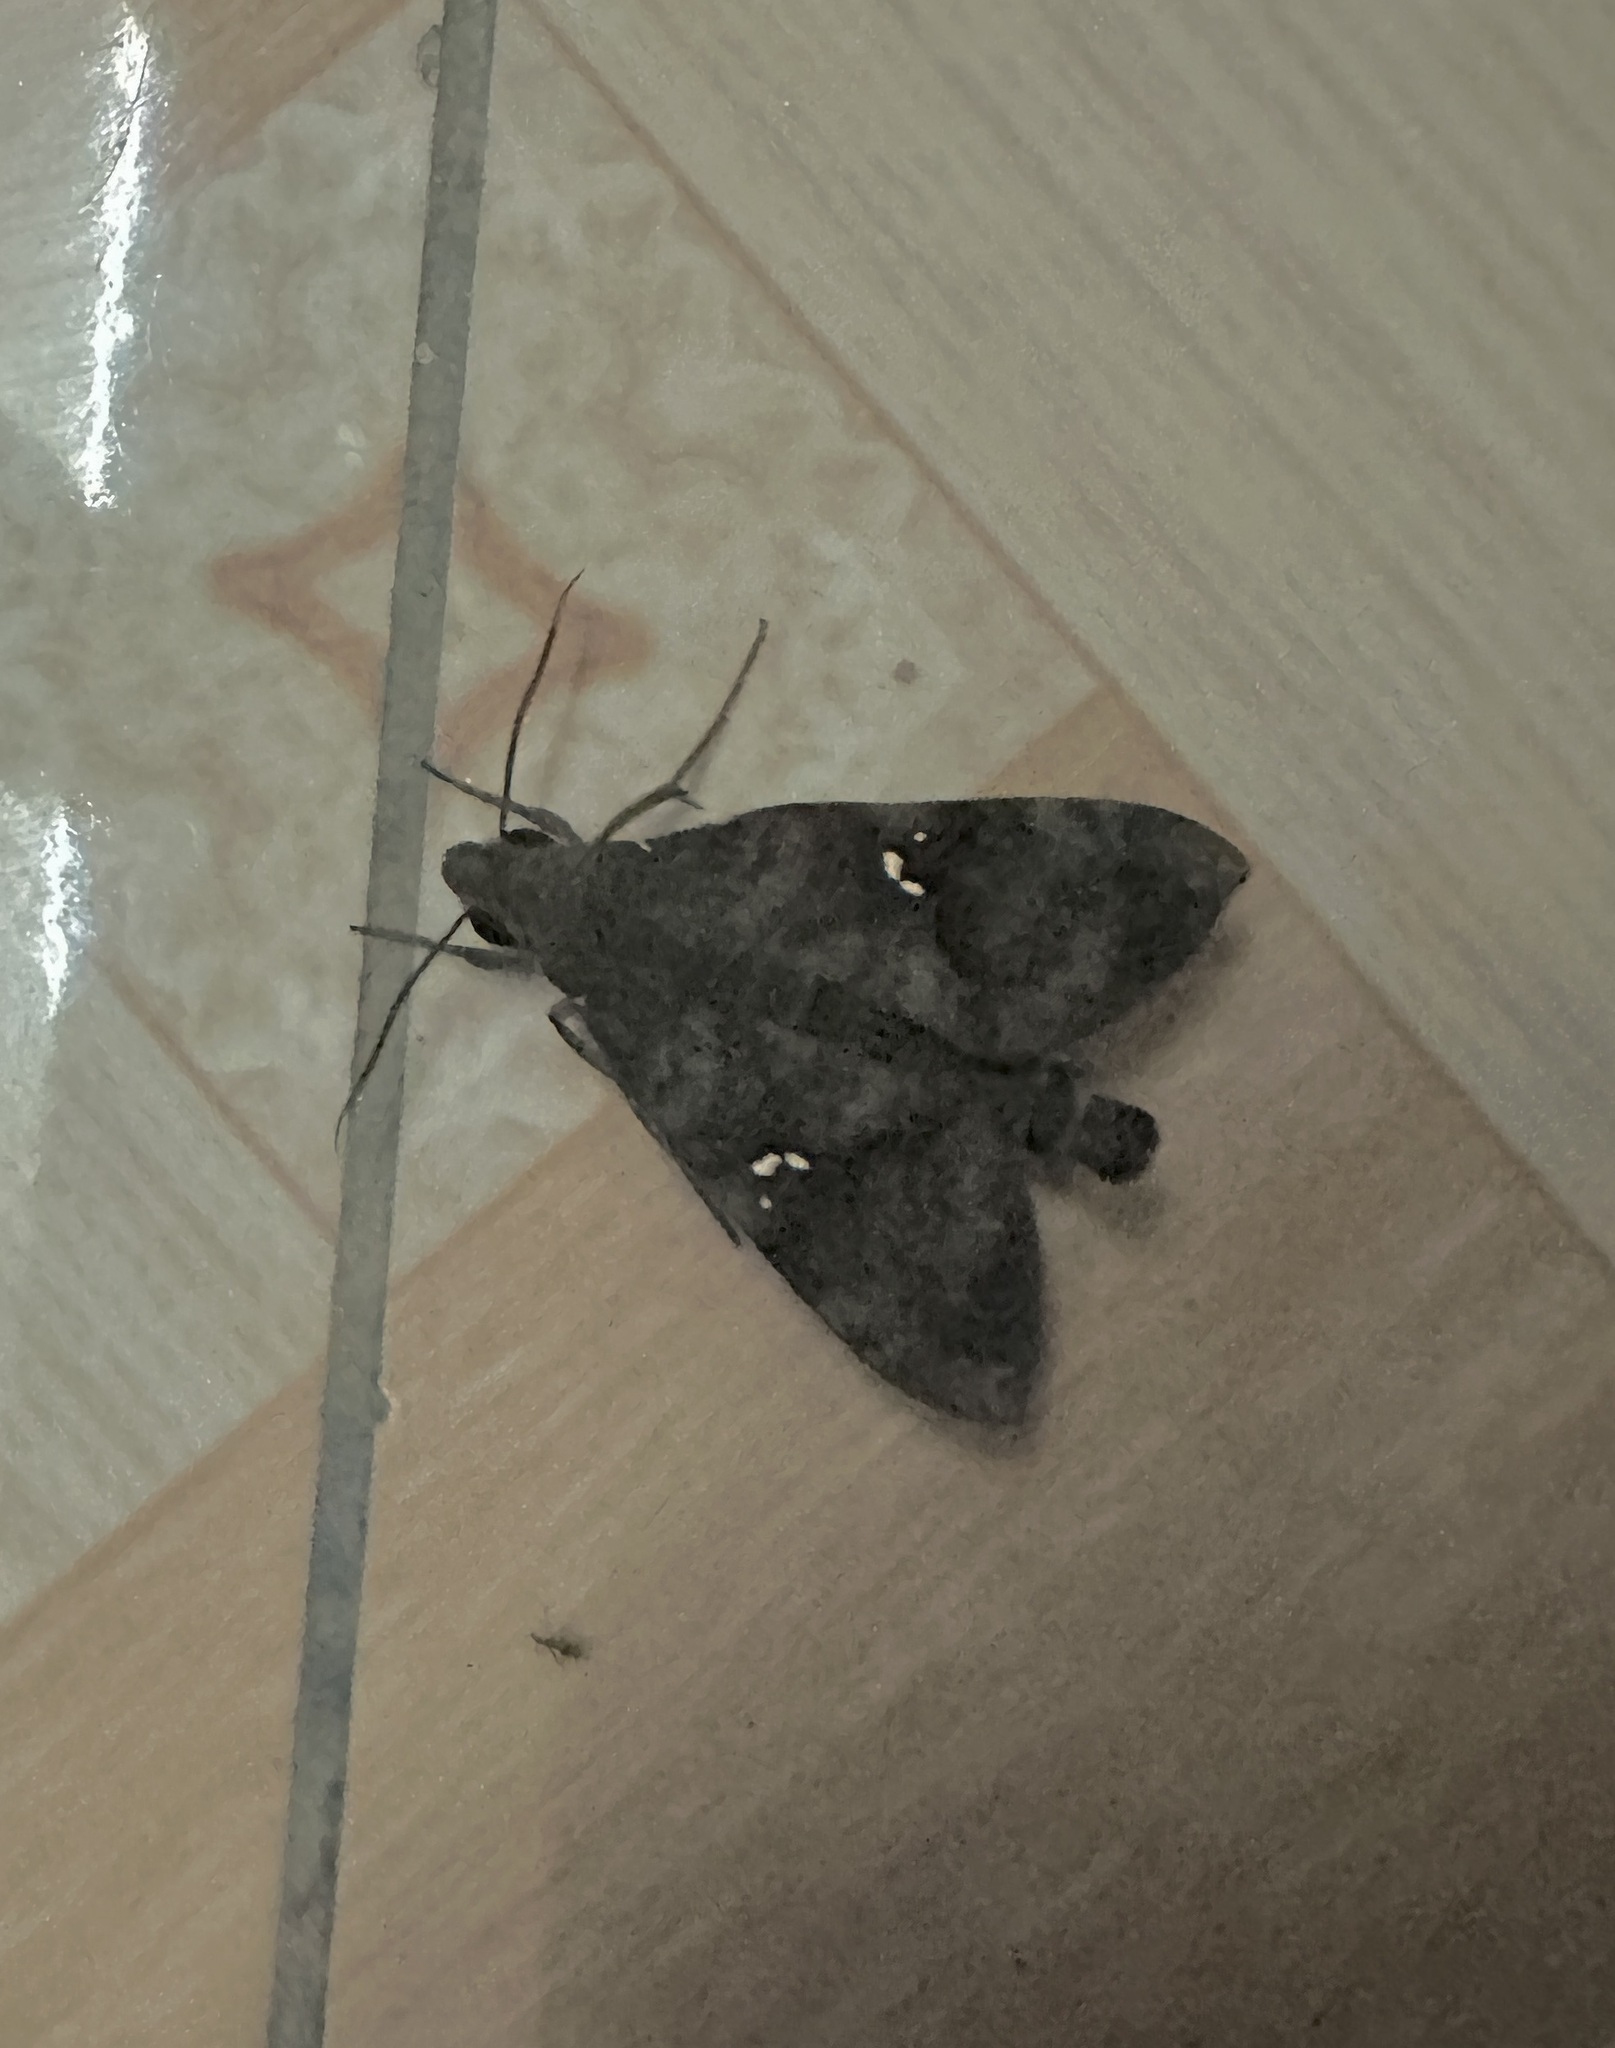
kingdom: Animalia
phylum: Arthropoda
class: Insecta
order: Lepidoptera
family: Sphingidae
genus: Nephele
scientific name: Nephele peneus
